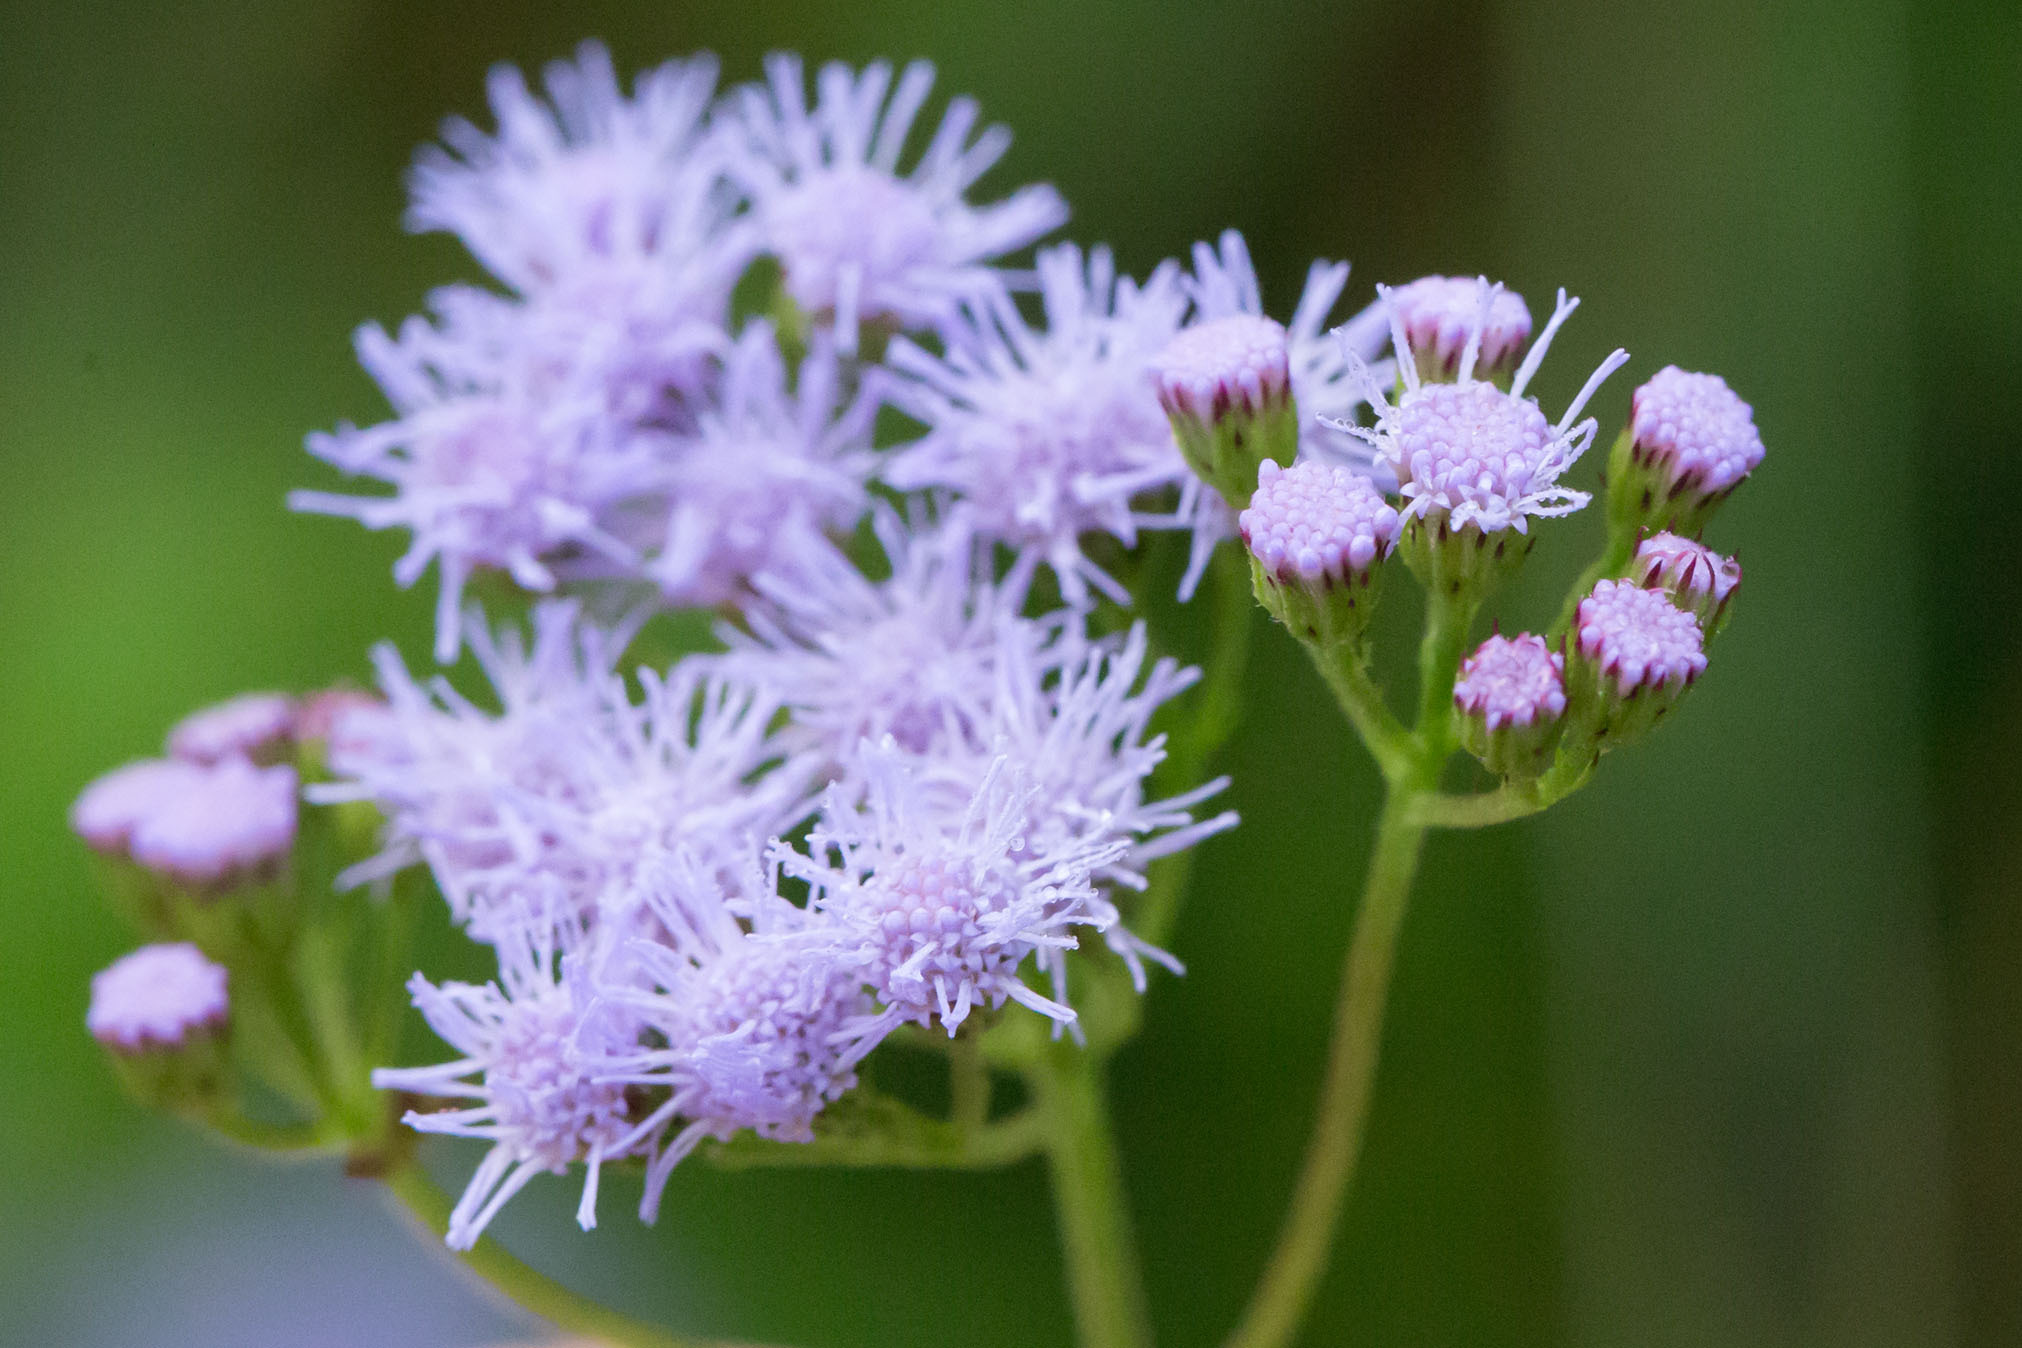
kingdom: Plantae
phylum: Tracheophyta
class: Magnoliopsida
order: Asterales
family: Asteraceae
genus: Conoclinium
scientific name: Conoclinium coelestinum
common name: Blue mistflower
